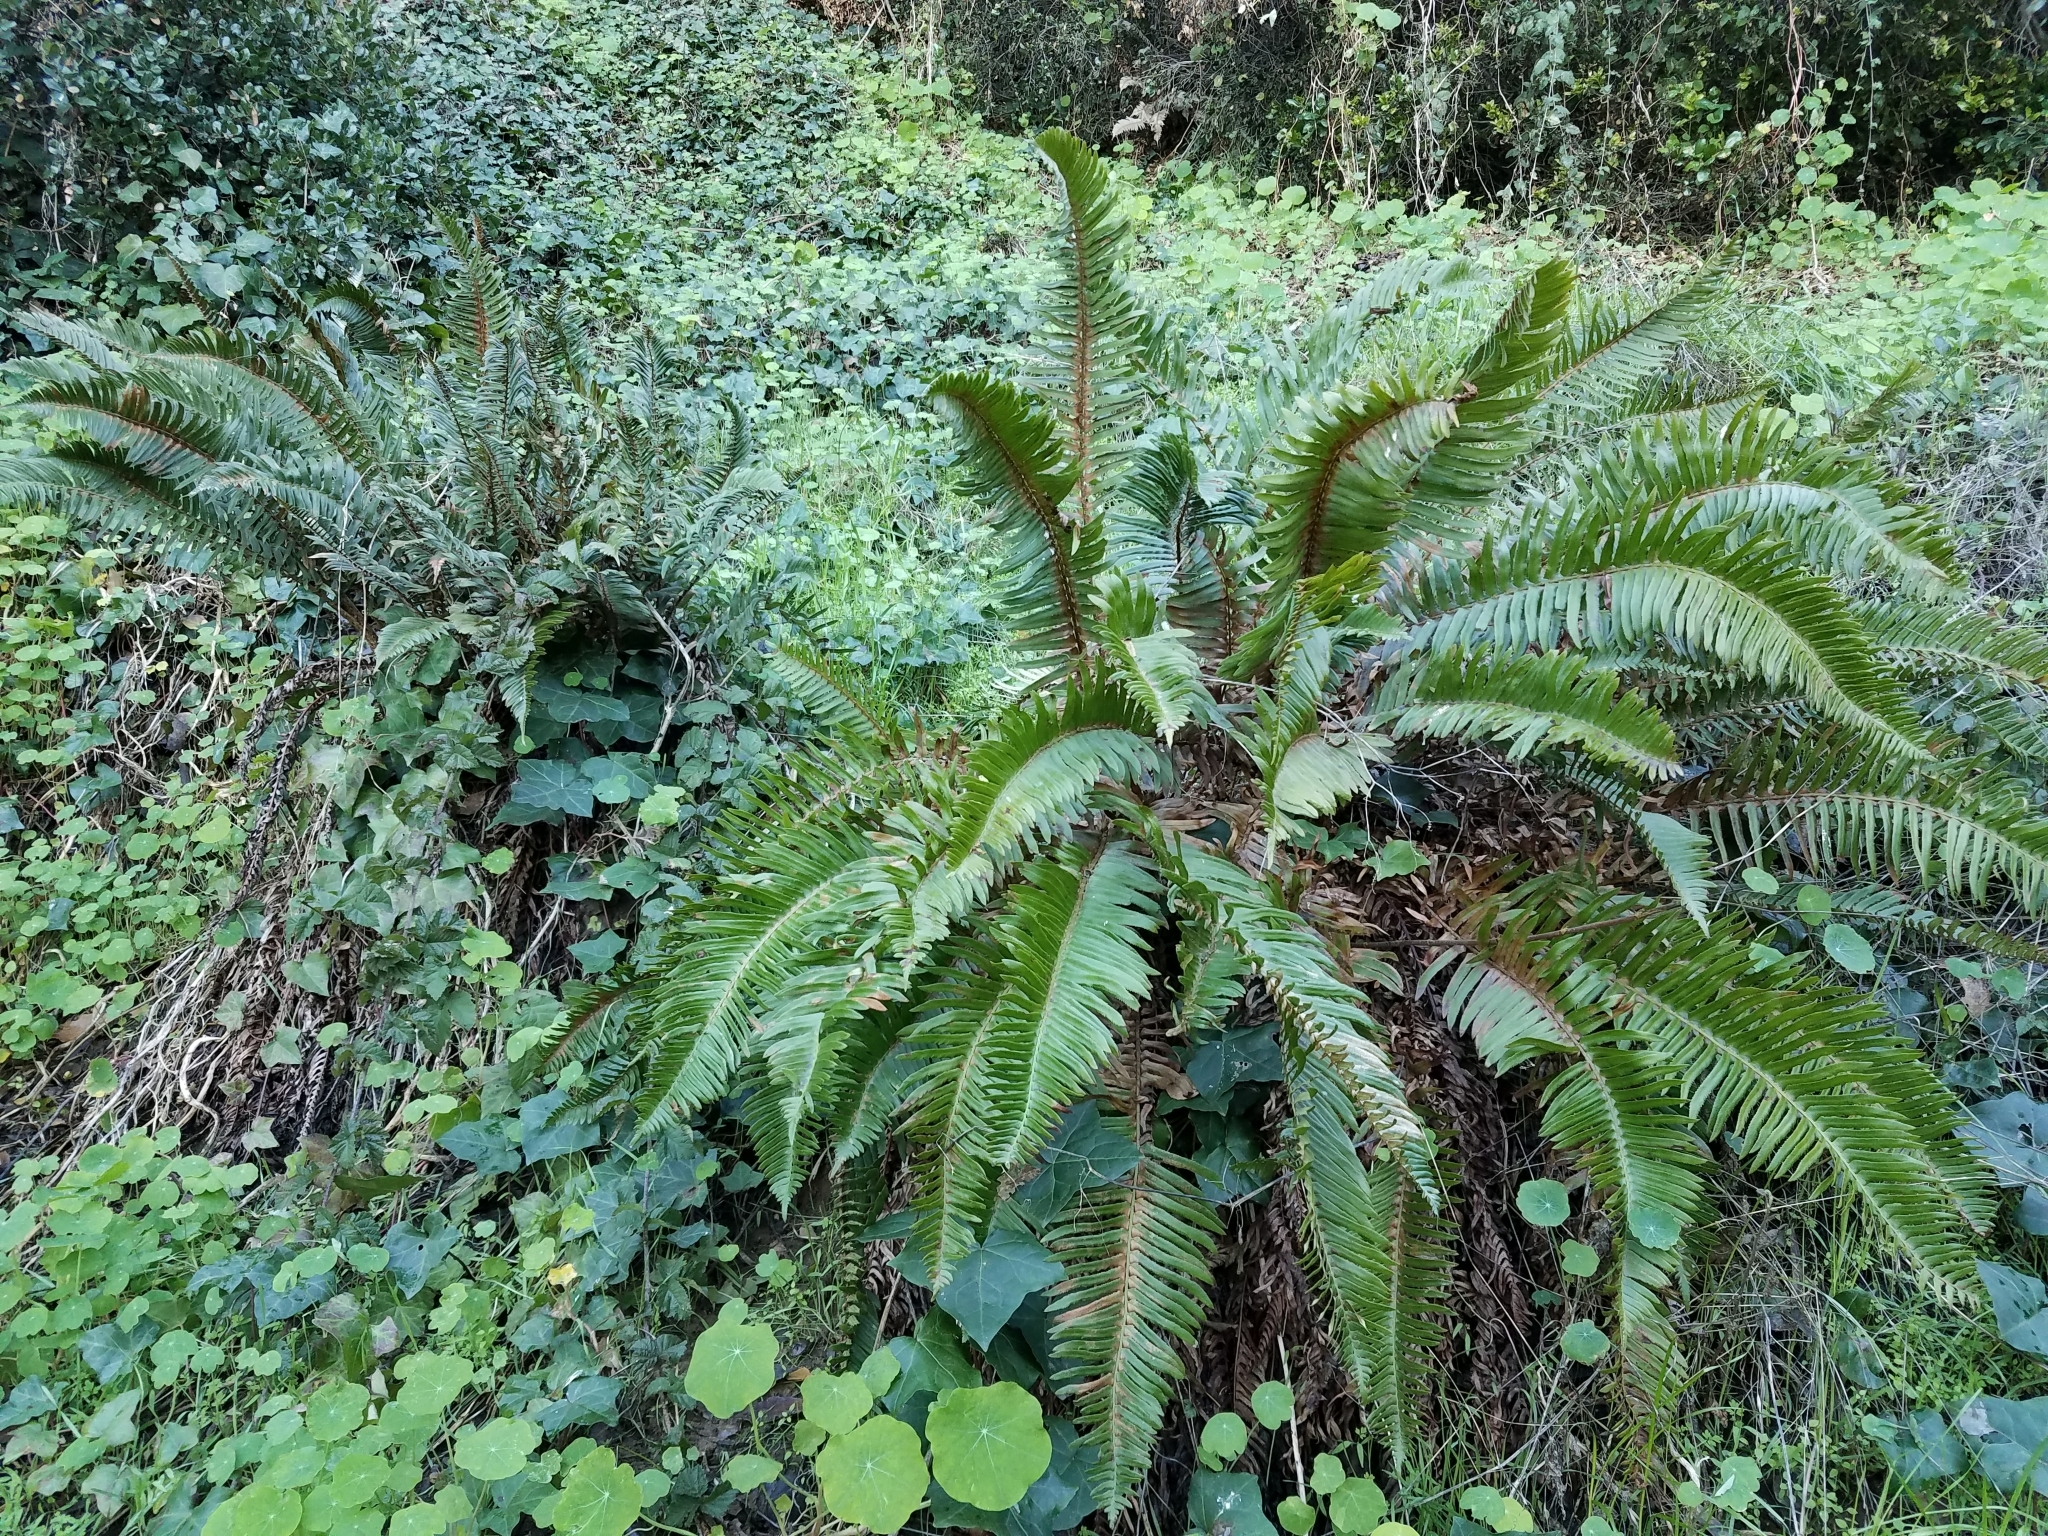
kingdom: Plantae
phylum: Tracheophyta
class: Polypodiopsida
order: Polypodiales
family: Dryopteridaceae
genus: Polystichum
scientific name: Polystichum munitum
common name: Western sword-fern
